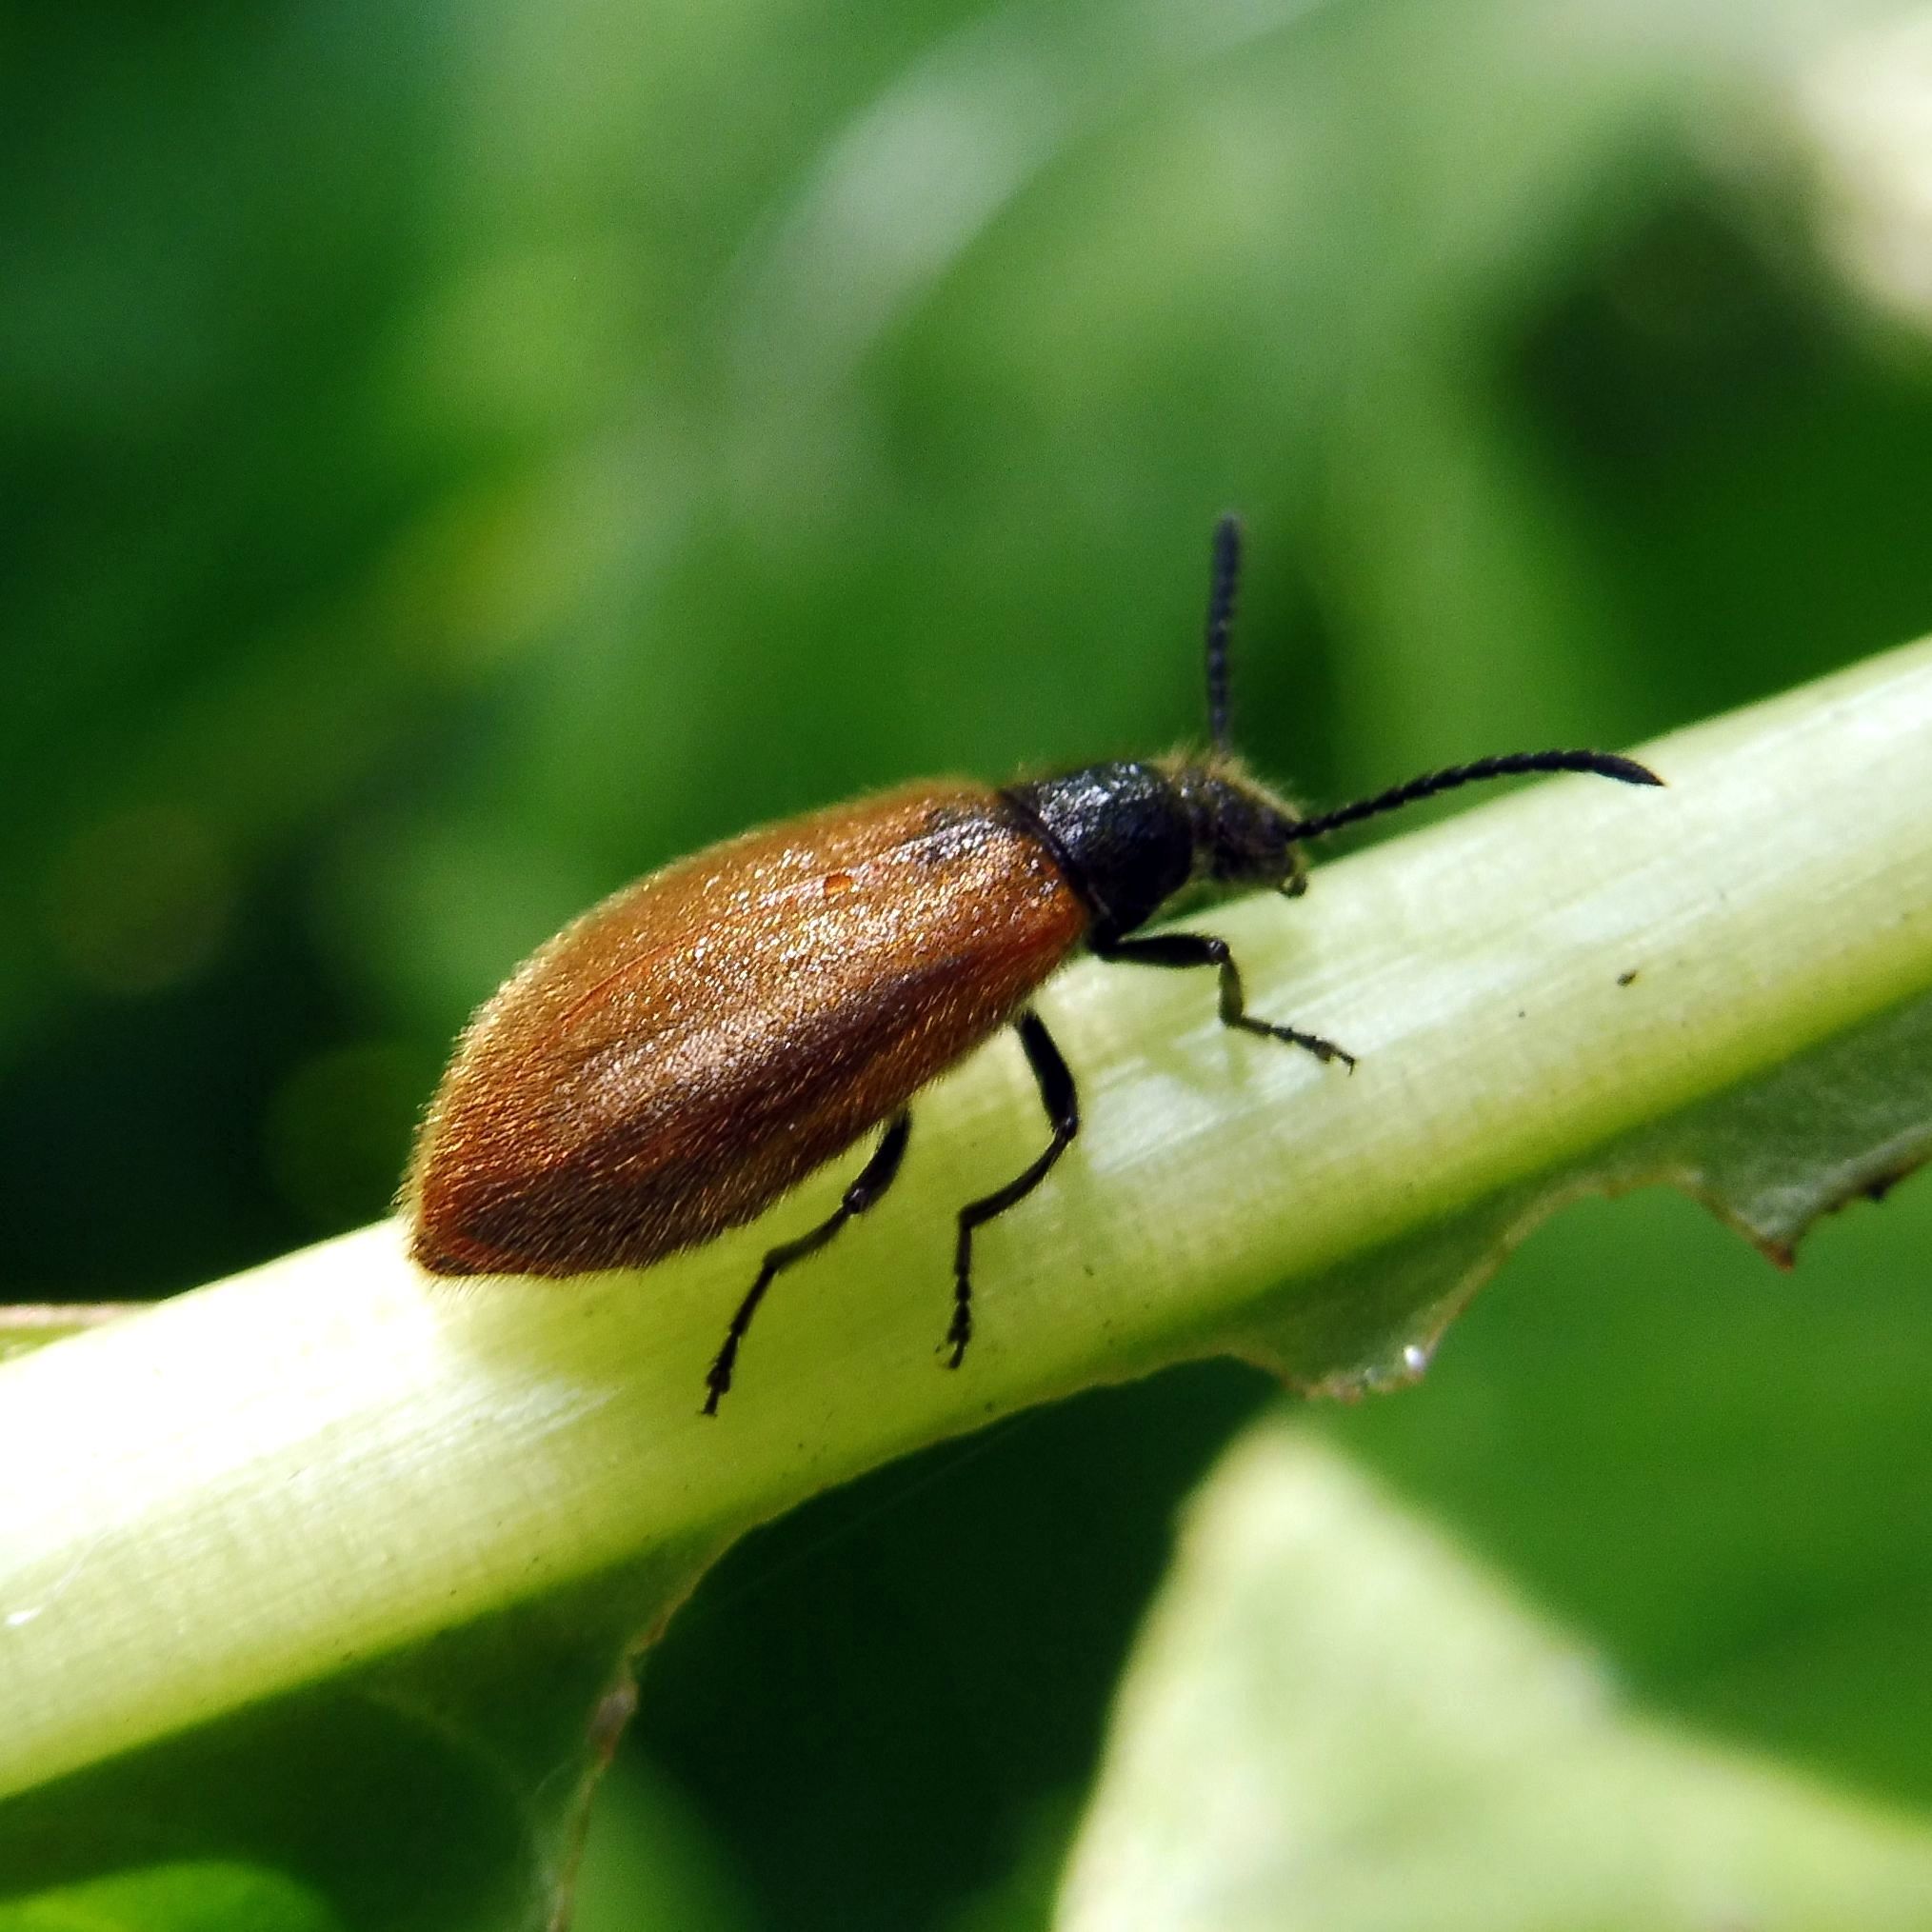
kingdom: Animalia
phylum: Arthropoda
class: Insecta
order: Coleoptera
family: Tenebrionidae
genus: Lagria
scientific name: Lagria hirta
